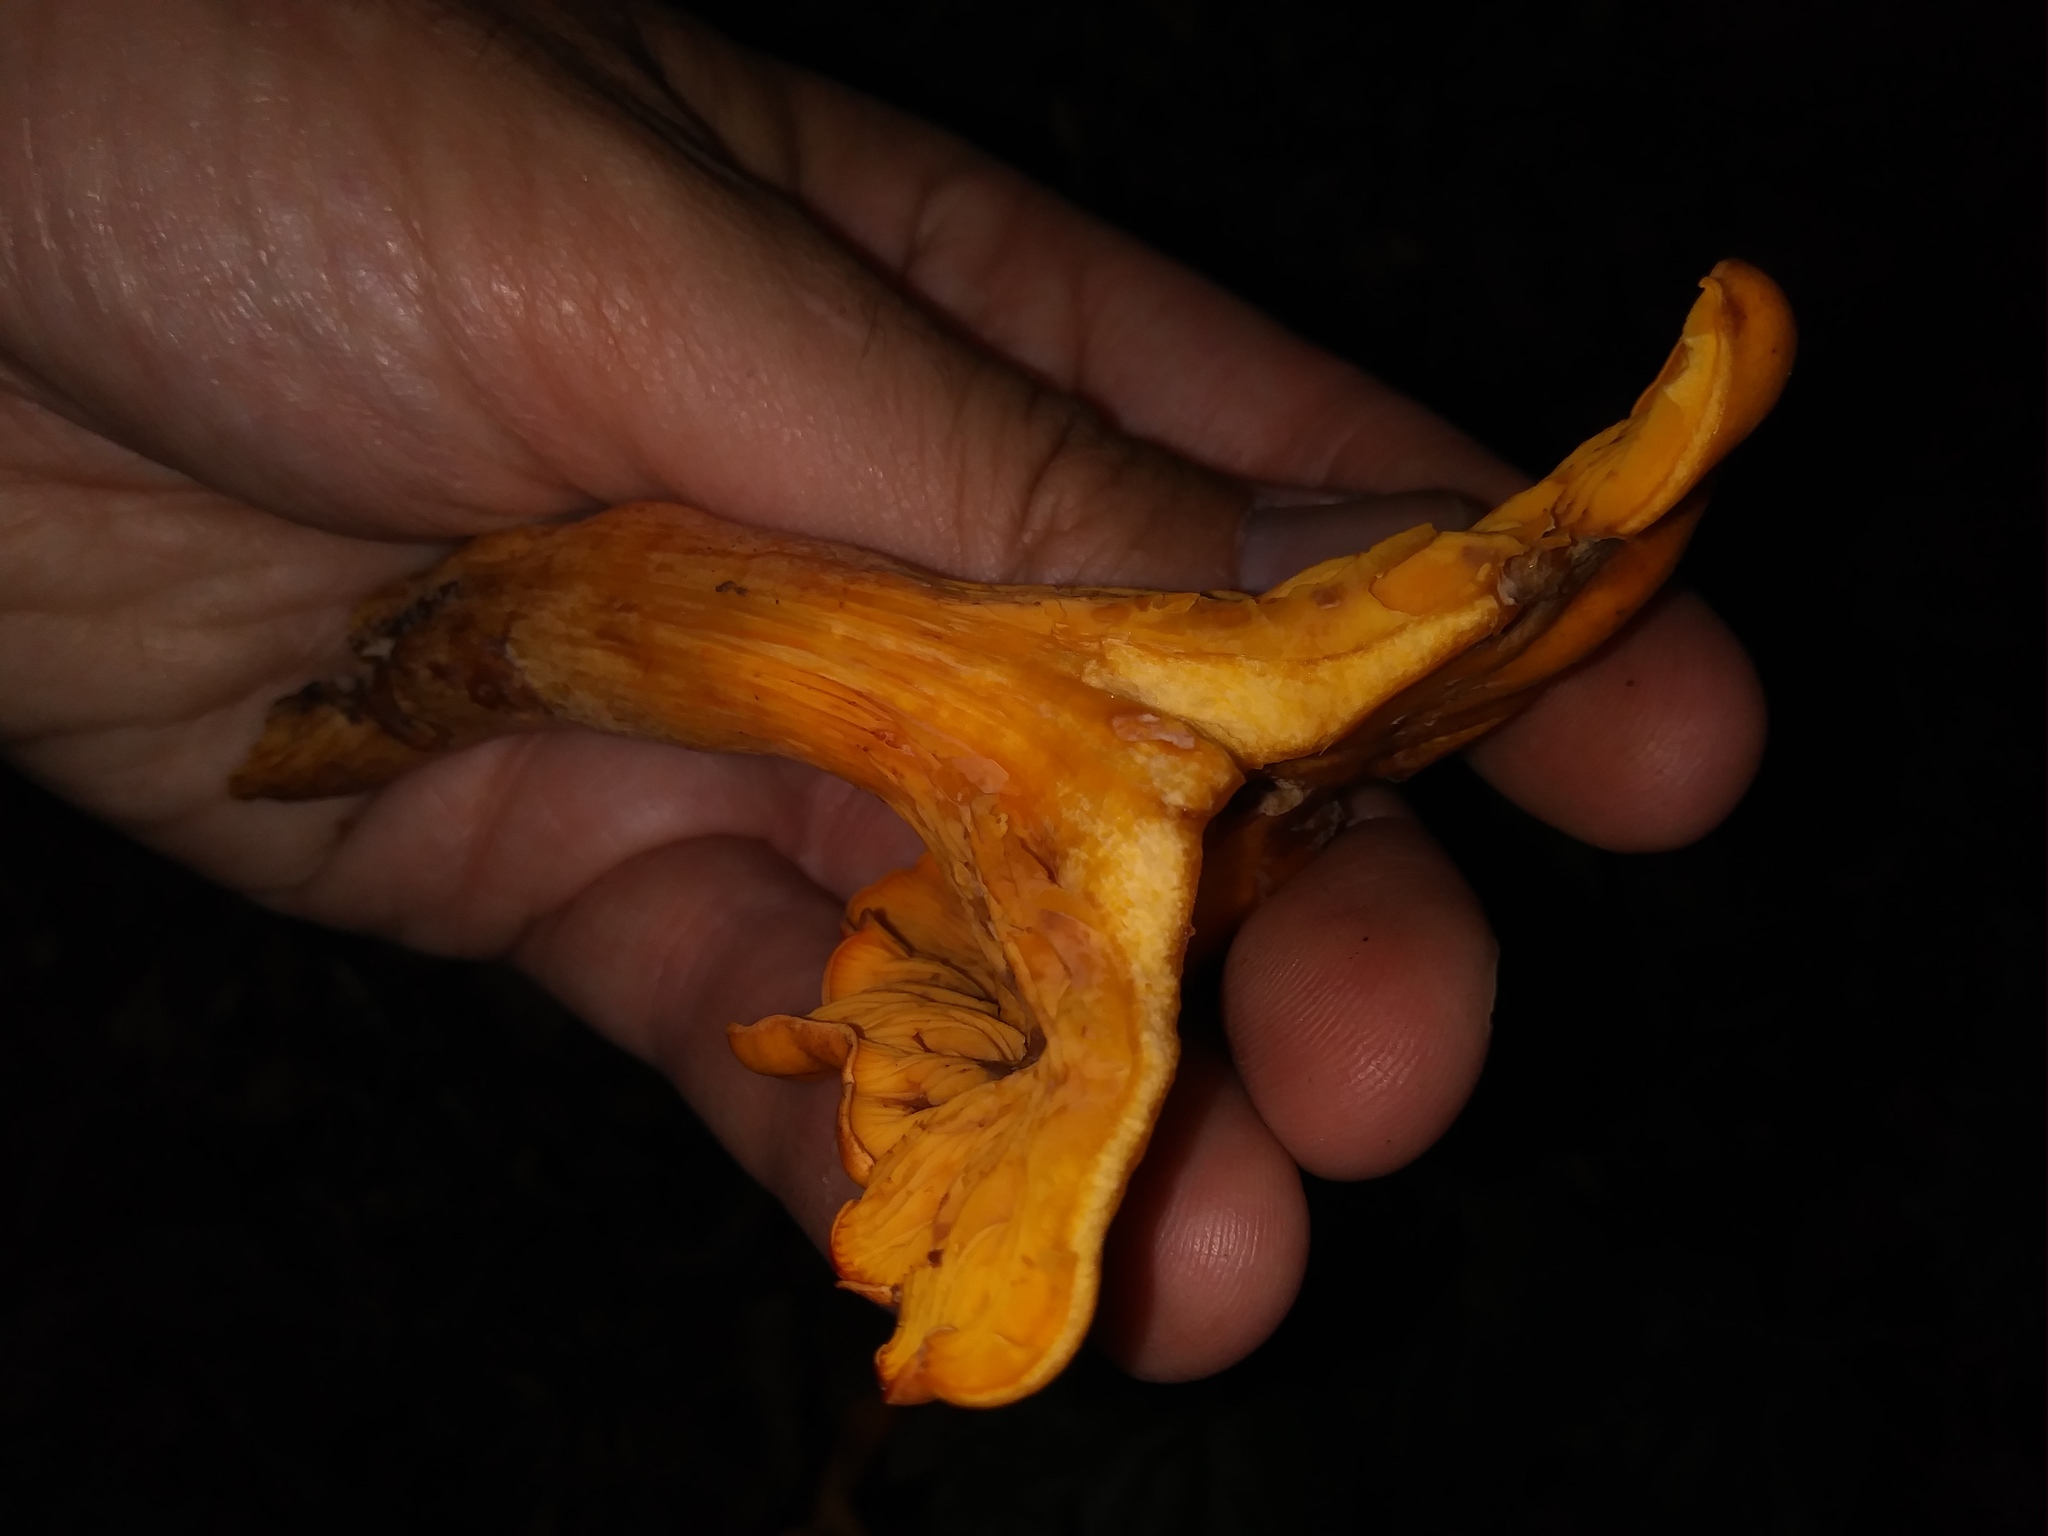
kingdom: Fungi
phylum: Basidiomycota
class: Agaricomycetes
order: Agaricales
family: Omphalotaceae
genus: Omphalotus
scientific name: Omphalotus illudens
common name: Jack o lantern
